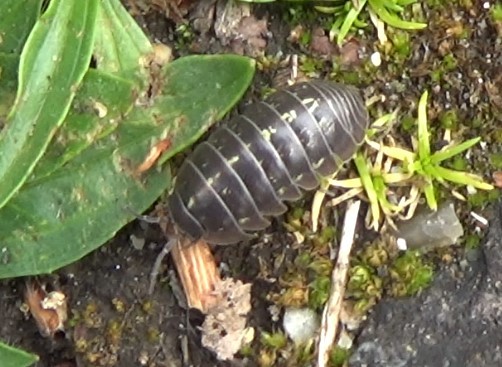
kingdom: Animalia
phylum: Arthropoda
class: Malacostraca
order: Isopoda
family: Armadillidiidae
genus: Armadillidium
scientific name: Armadillidium vulgare
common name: Common pill woodlouse
